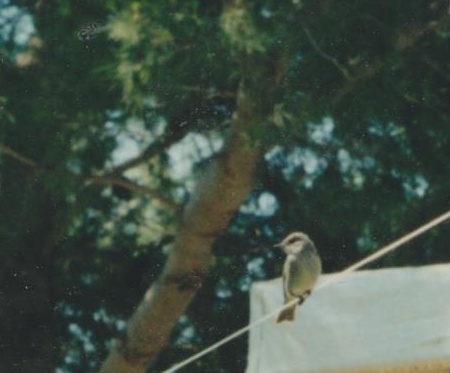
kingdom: Animalia
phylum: Chordata
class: Aves
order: Passeriformes
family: Muscicapidae
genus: Muscicapa
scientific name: Muscicapa striata
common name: Spotted flycatcher
